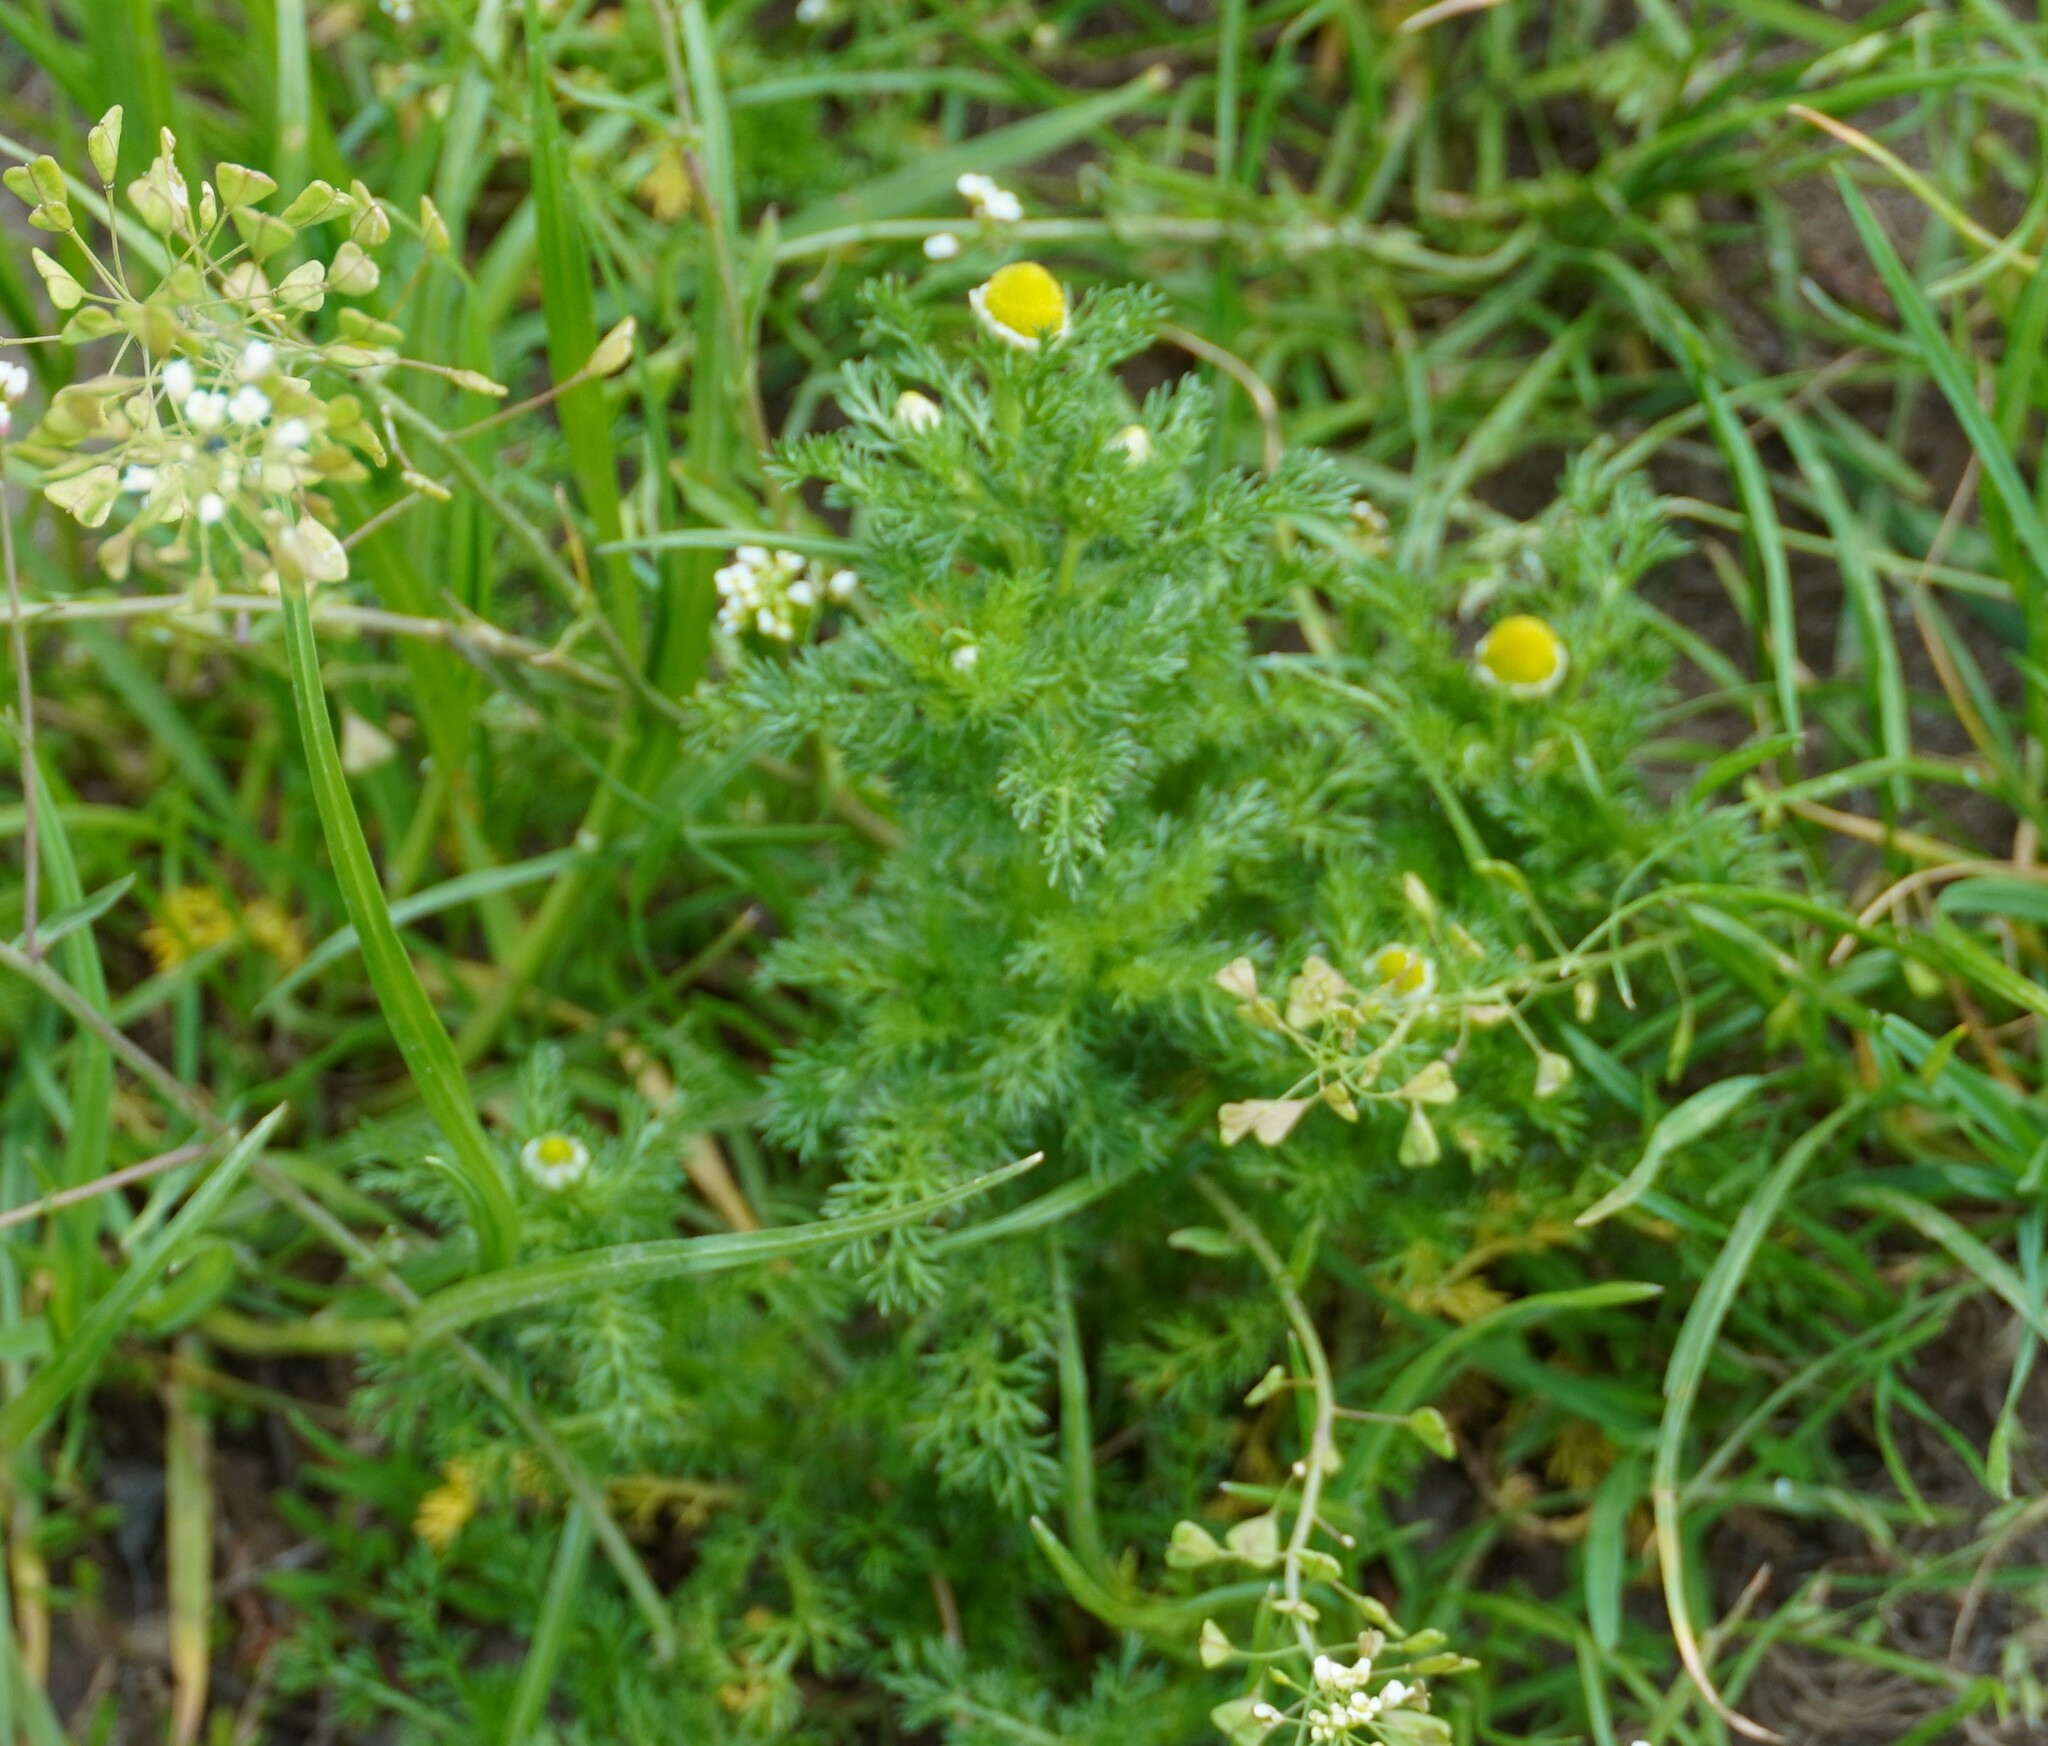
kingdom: Plantae
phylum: Tracheophyta
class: Magnoliopsida
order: Asterales
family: Asteraceae
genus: Matricaria
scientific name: Matricaria discoidea
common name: Disc mayweed
